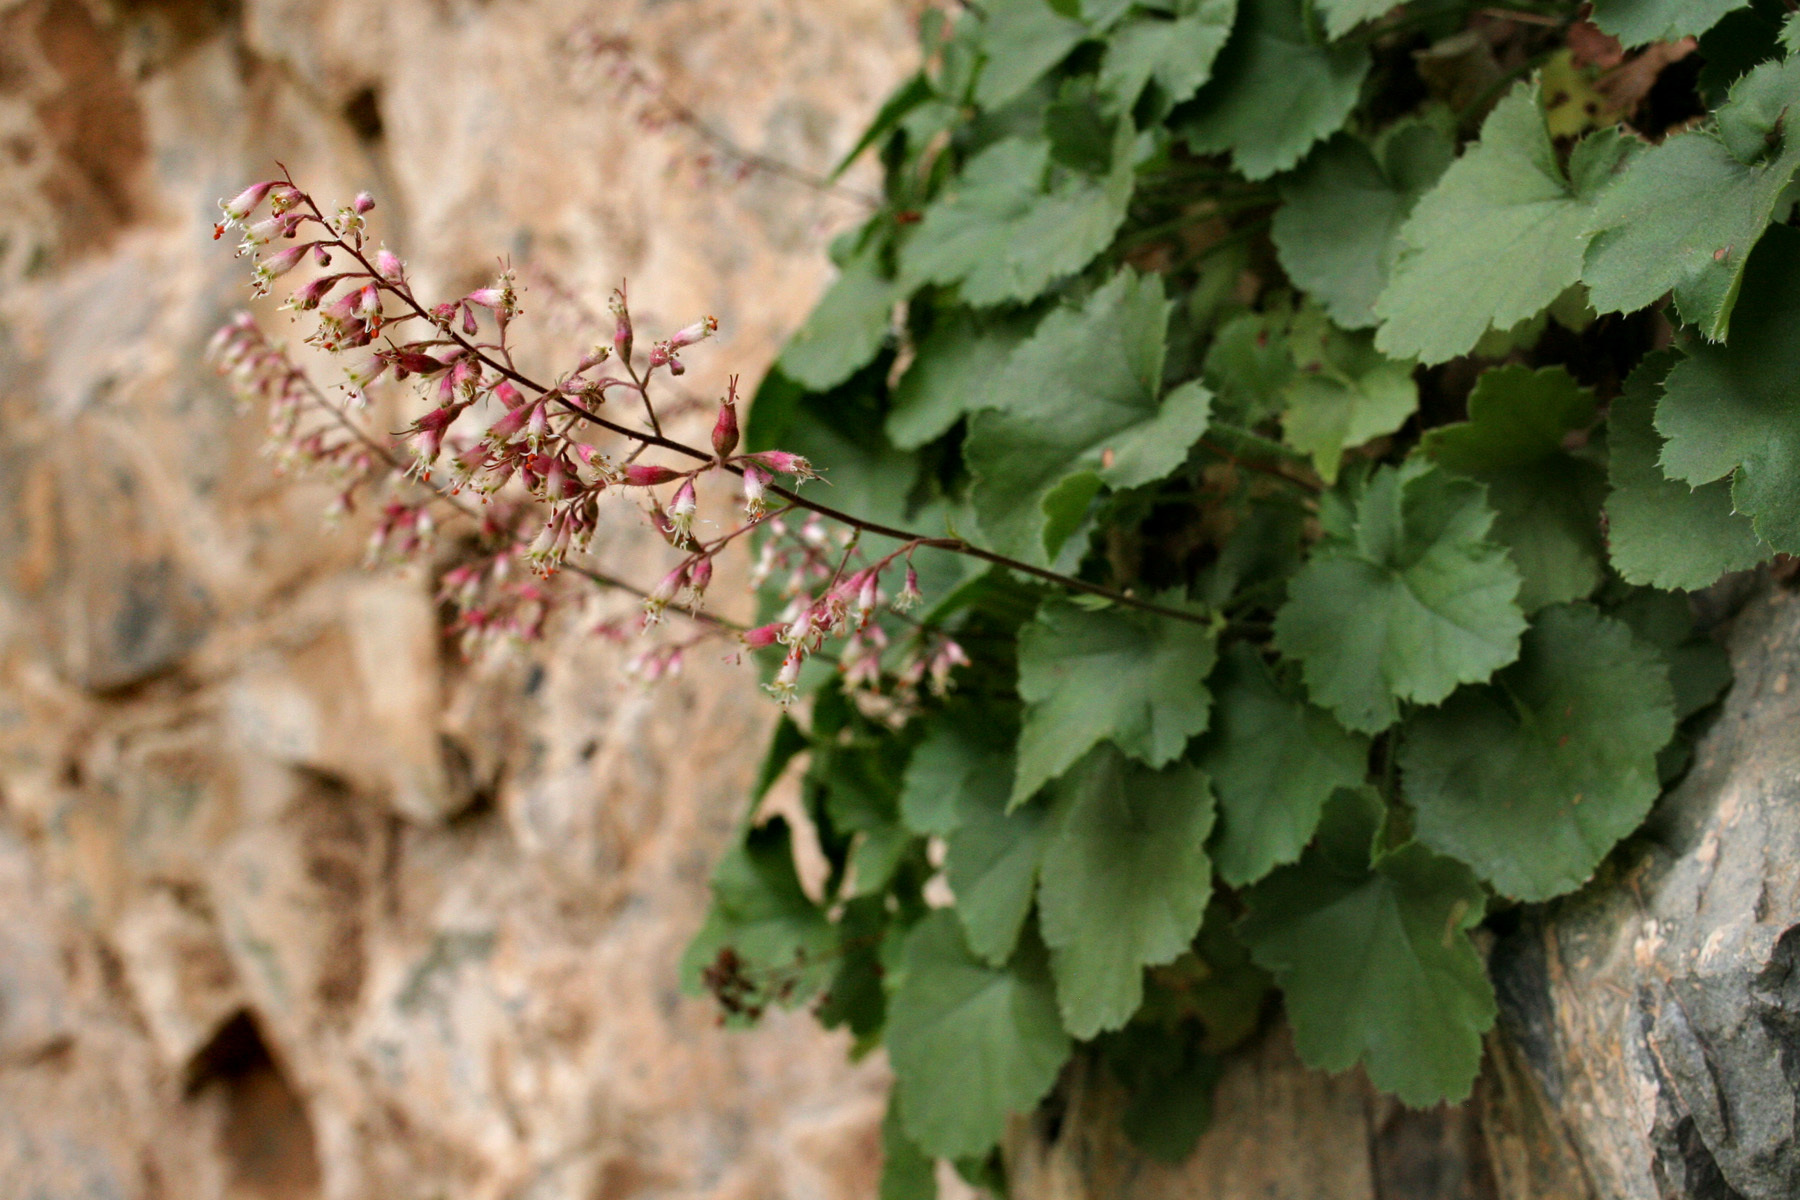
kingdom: Plantae
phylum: Tracheophyta
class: Magnoliopsida
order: Saxifragales
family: Saxifragaceae
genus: Heuchera
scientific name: Heuchera rubescens
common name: Jack-o'the-rocks
